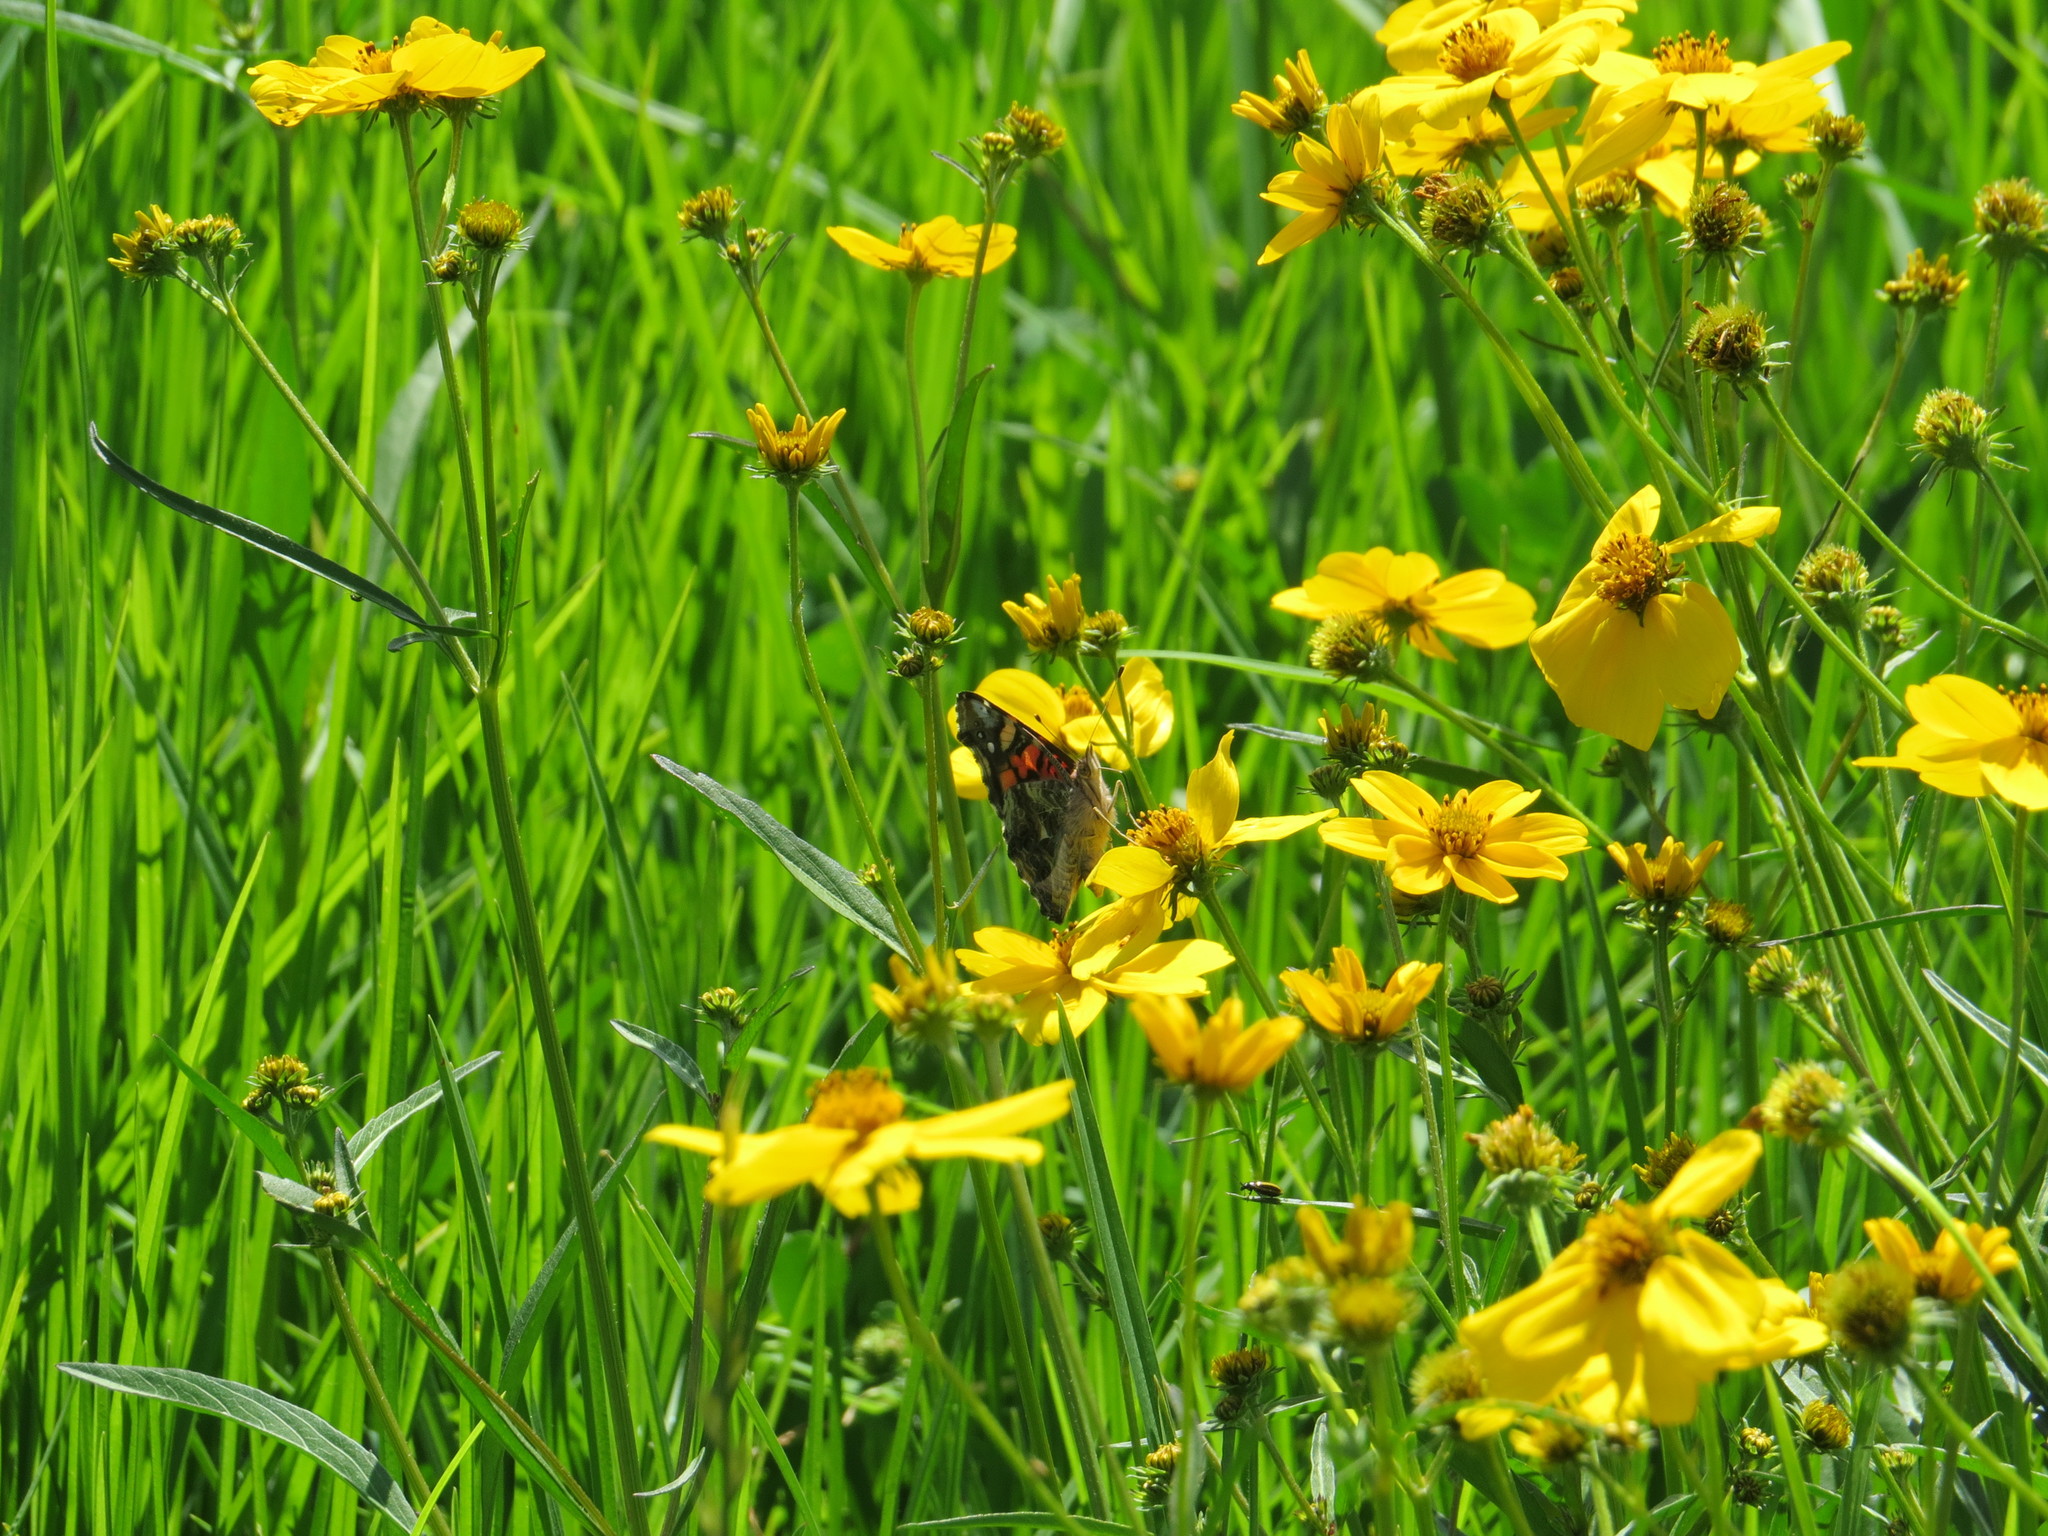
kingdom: Animalia
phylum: Arthropoda
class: Insecta
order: Lepidoptera
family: Nymphalidae
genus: Vanessa
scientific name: Vanessa annabella
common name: West coast lady
